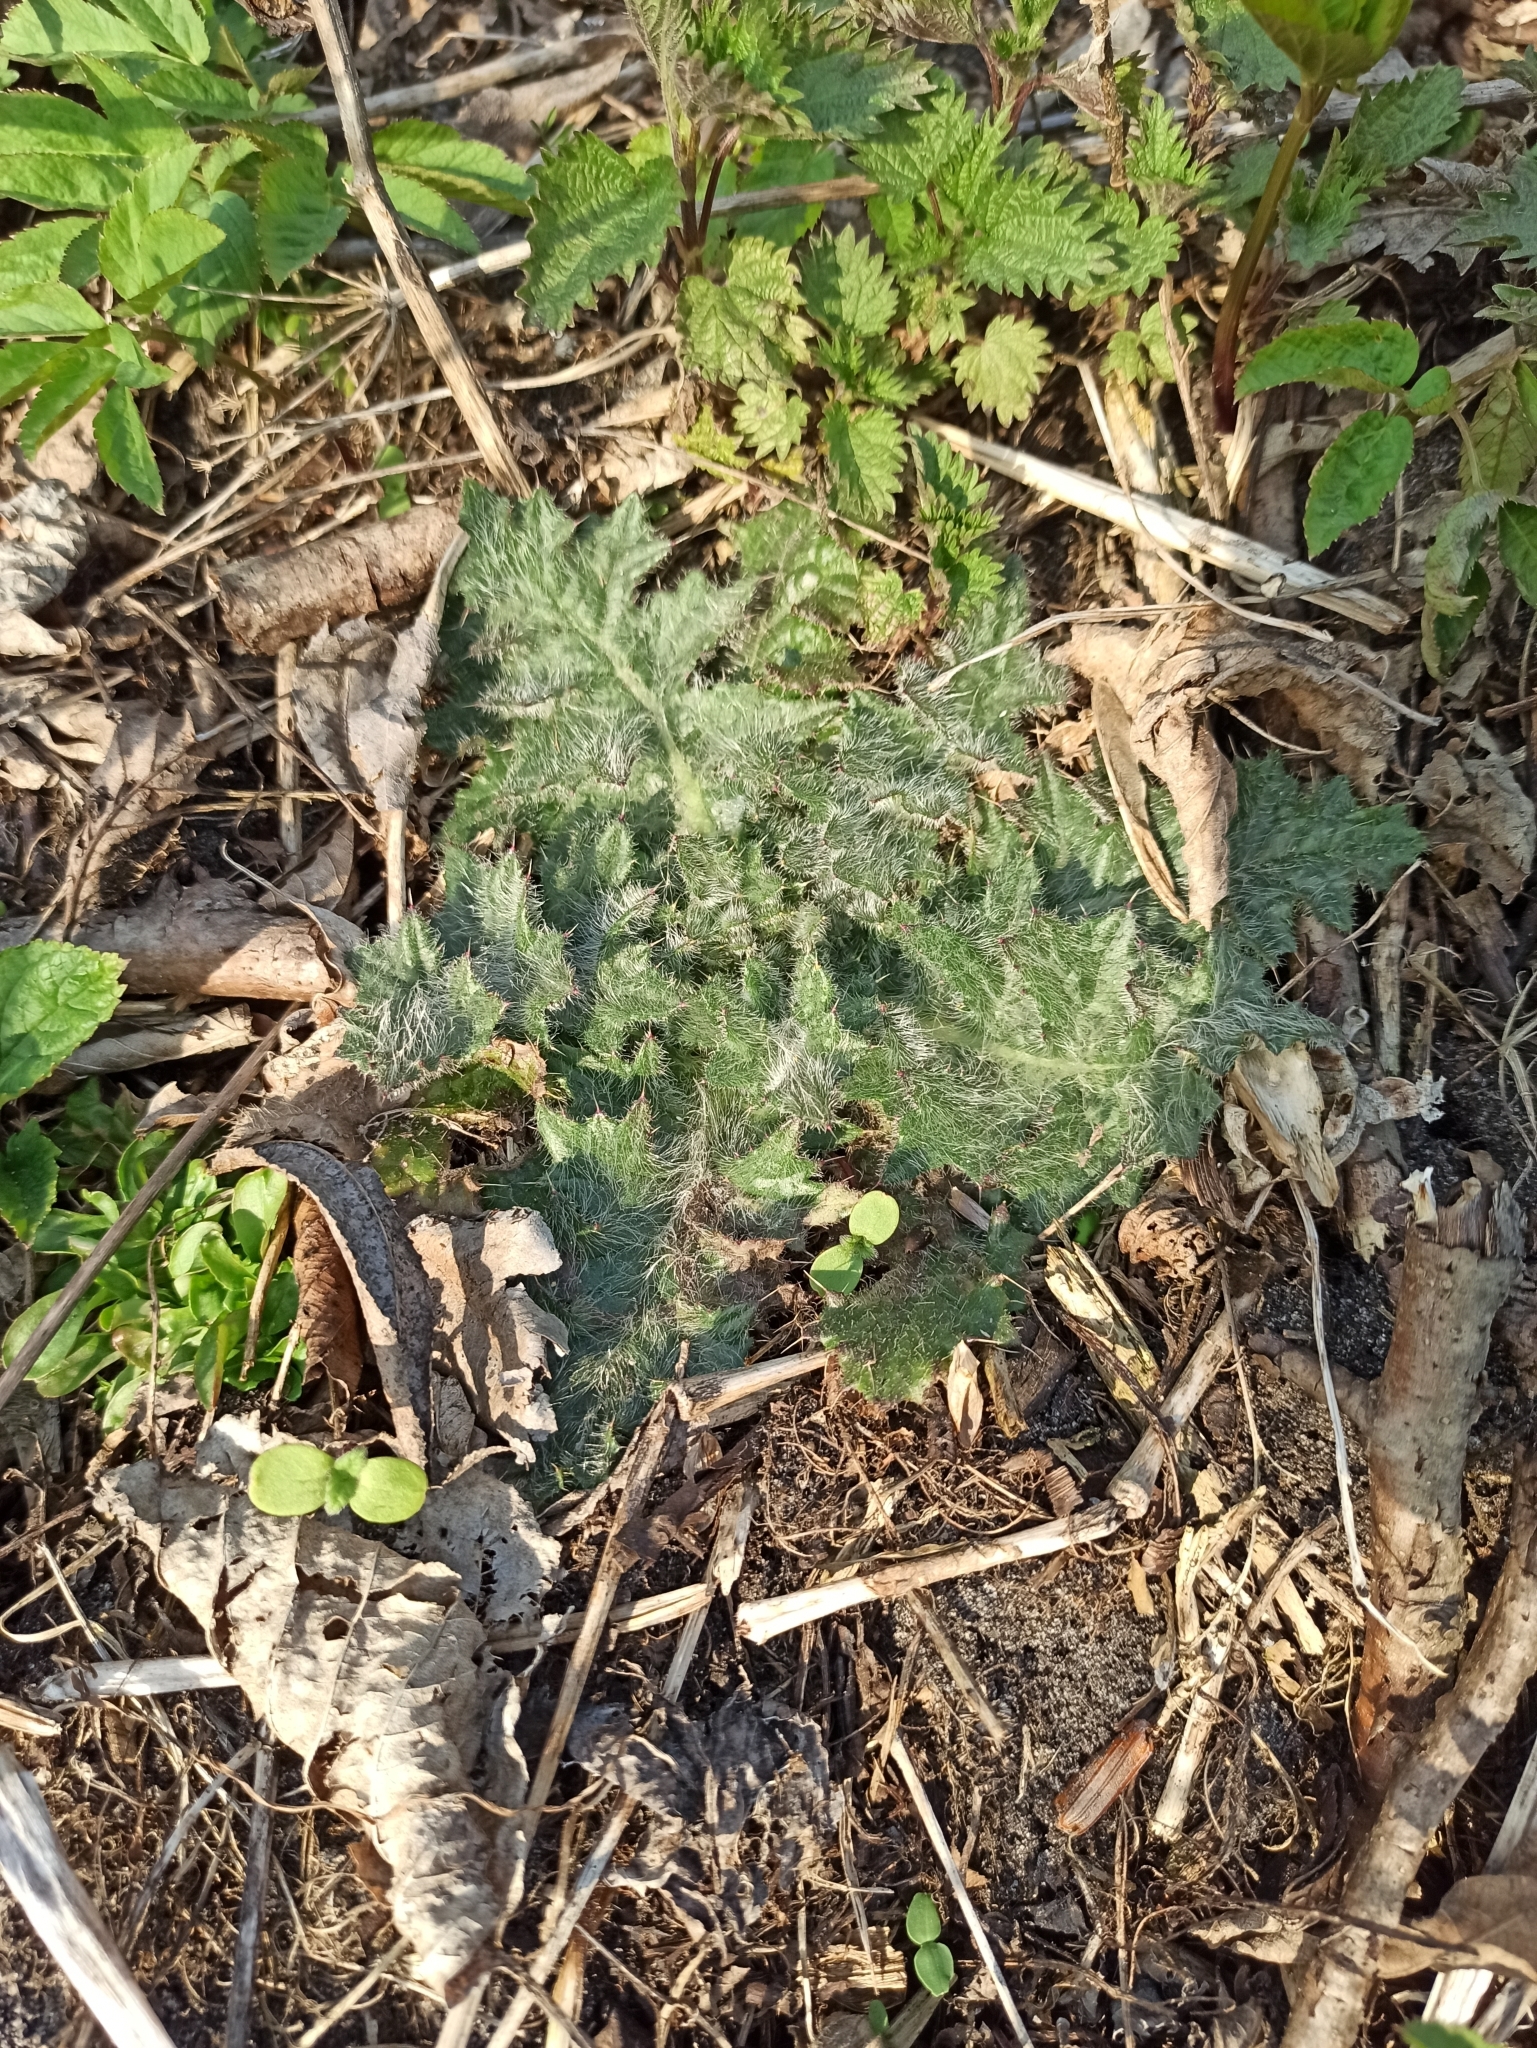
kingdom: Plantae
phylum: Tracheophyta
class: Magnoliopsida
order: Asterales
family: Asteraceae
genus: Cirsium
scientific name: Cirsium vulgare
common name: Bull thistle
